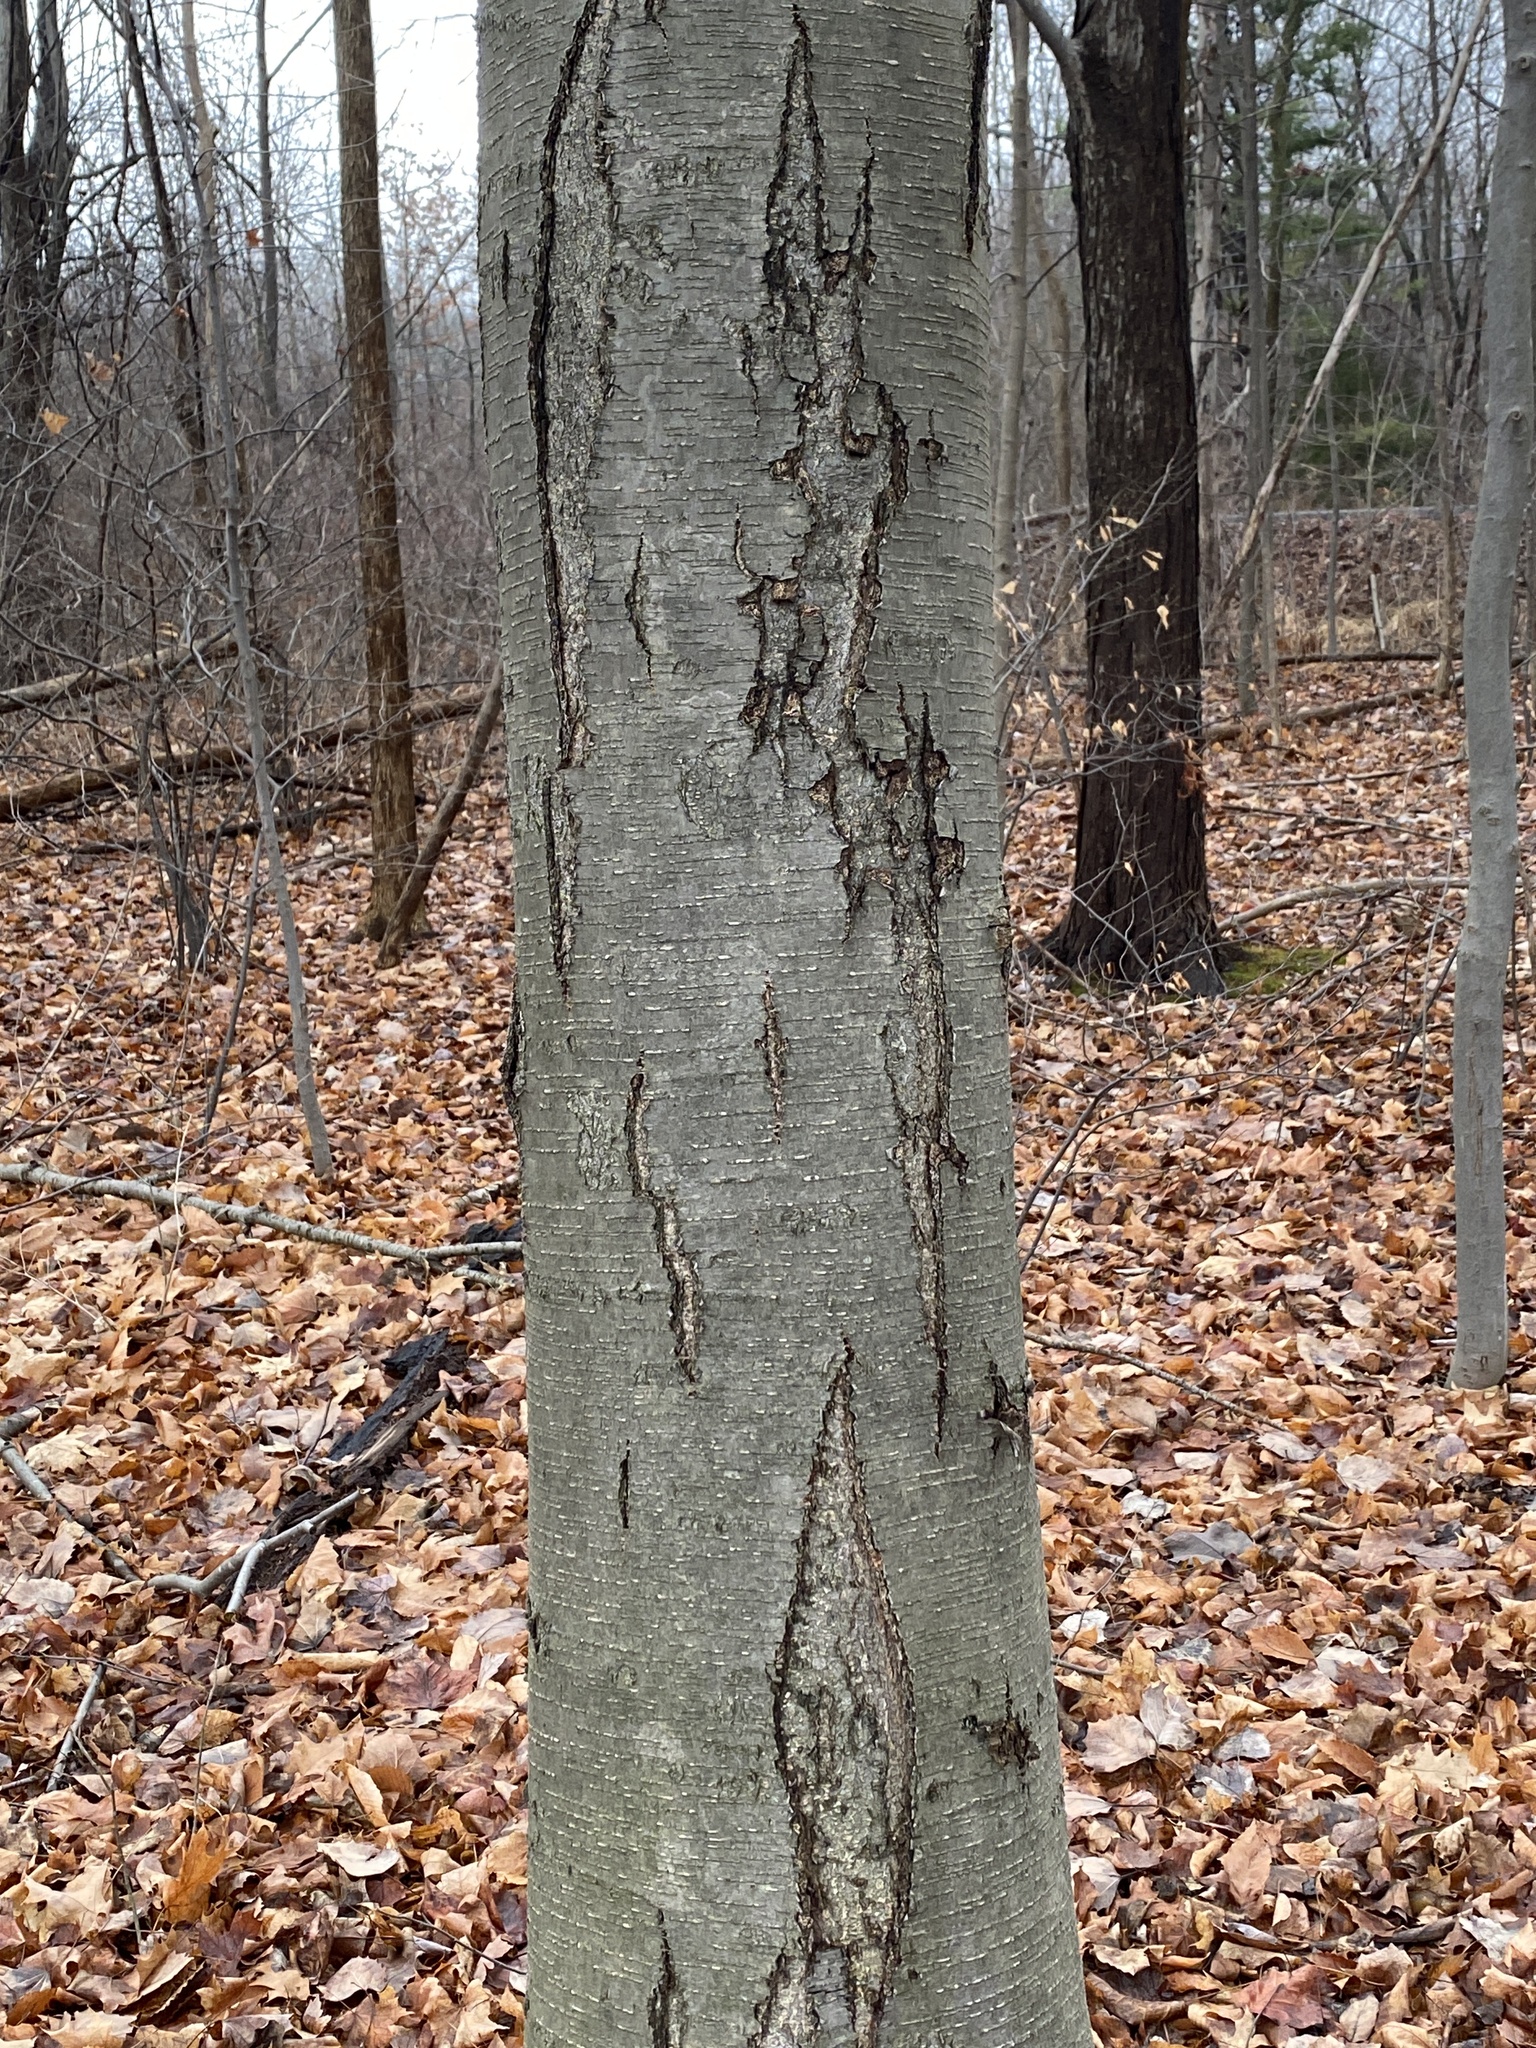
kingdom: Plantae
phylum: Tracheophyta
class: Magnoliopsida
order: Fagales
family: Betulaceae
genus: Betula
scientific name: Betula lenta
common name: Black birch
